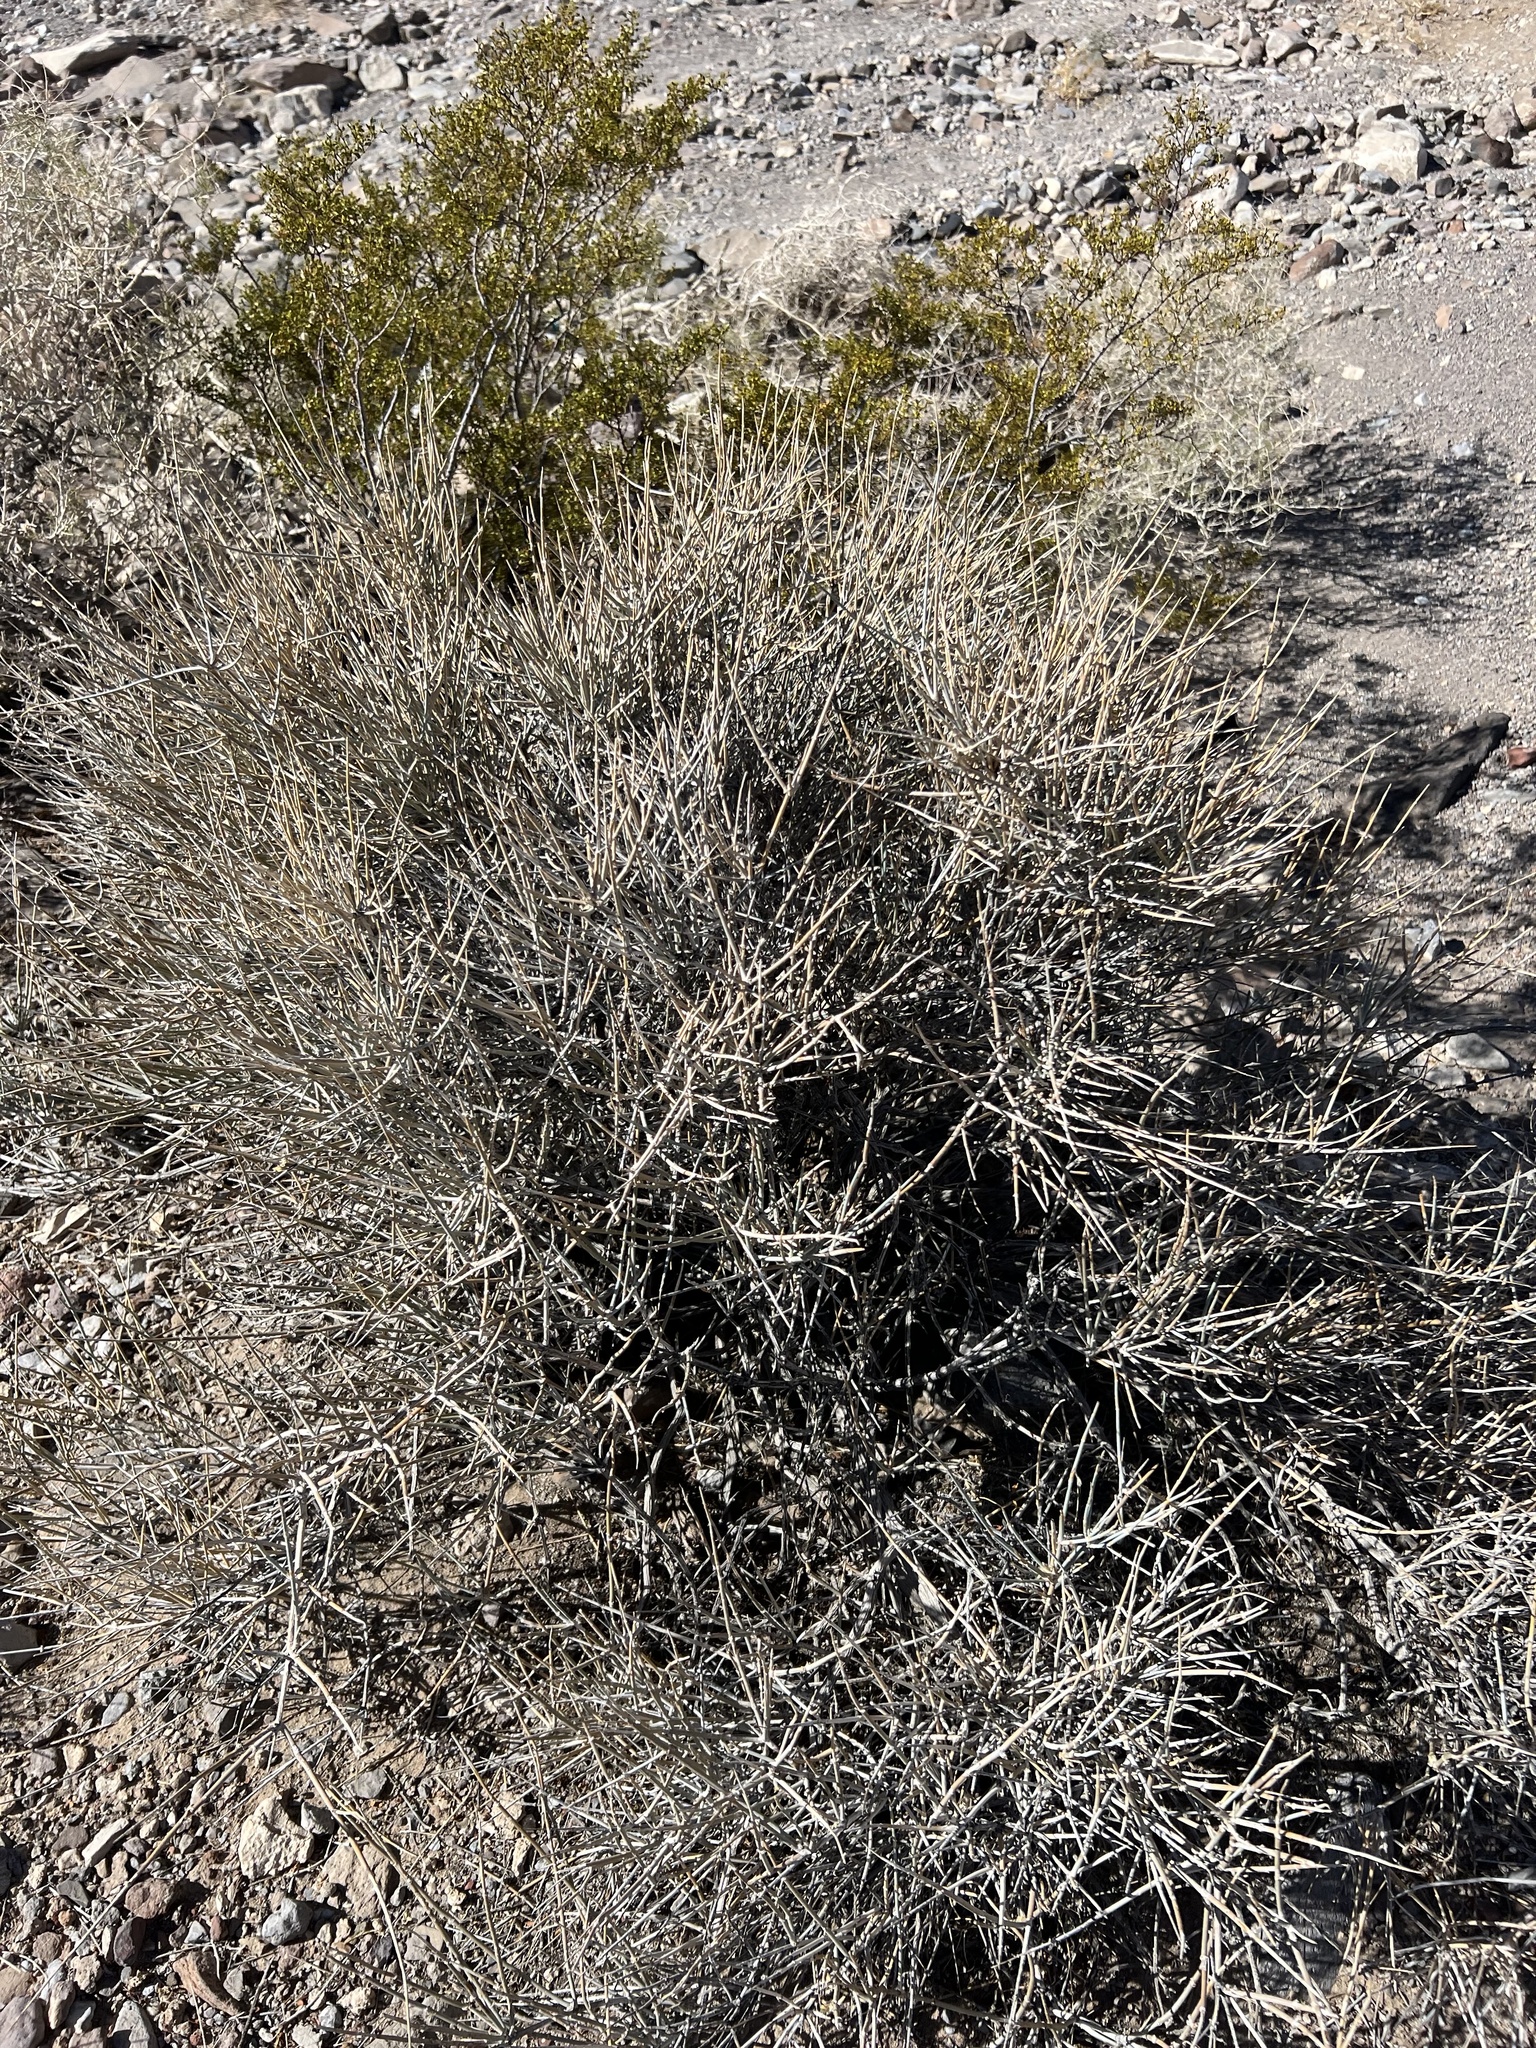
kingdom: Plantae
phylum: Tracheophyta
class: Gnetopsida
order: Ephedrales
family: Ephedraceae
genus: Ephedra
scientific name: Ephedra nevadensis
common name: Gray ephedra
